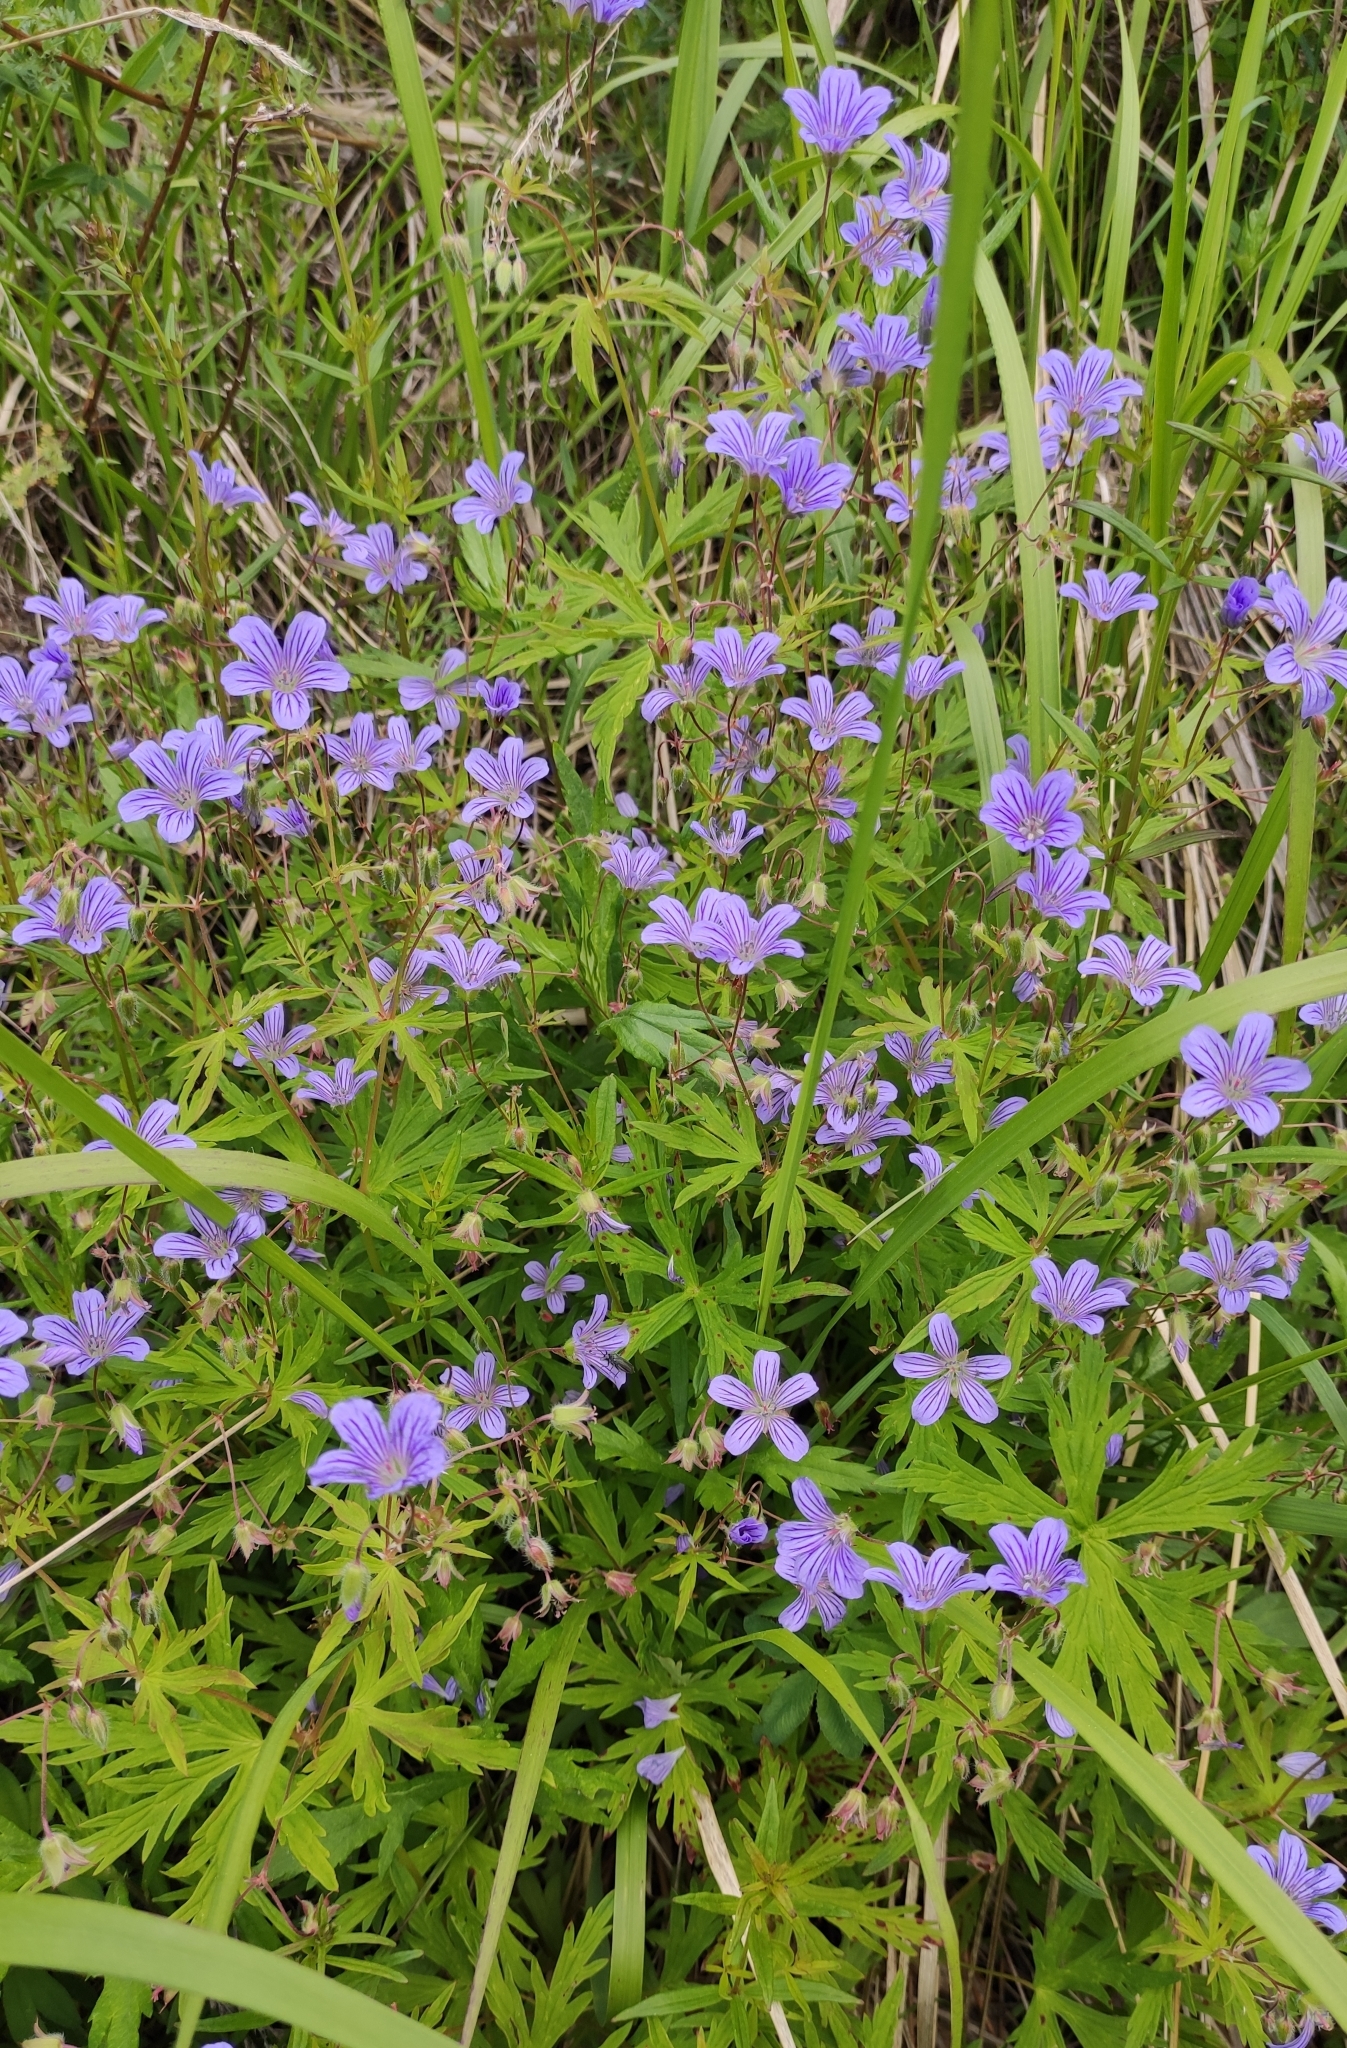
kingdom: Plantae
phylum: Tracheophyta
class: Magnoliopsida
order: Geraniales
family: Geraniaceae
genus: Geranium
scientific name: Geranium pseudosibiricum
